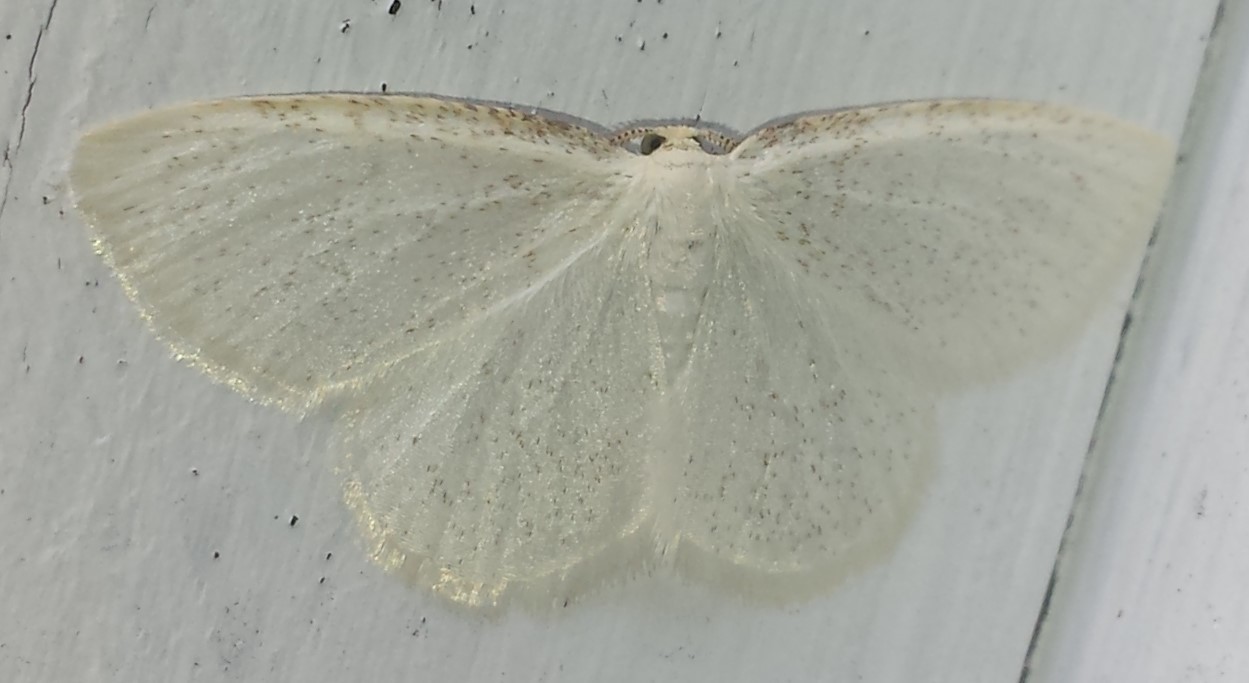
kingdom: Animalia
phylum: Arthropoda
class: Insecta
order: Lepidoptera
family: Geometridae
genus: Cabera
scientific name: Cabera variolaria
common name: Pink-striped willow spanworm
